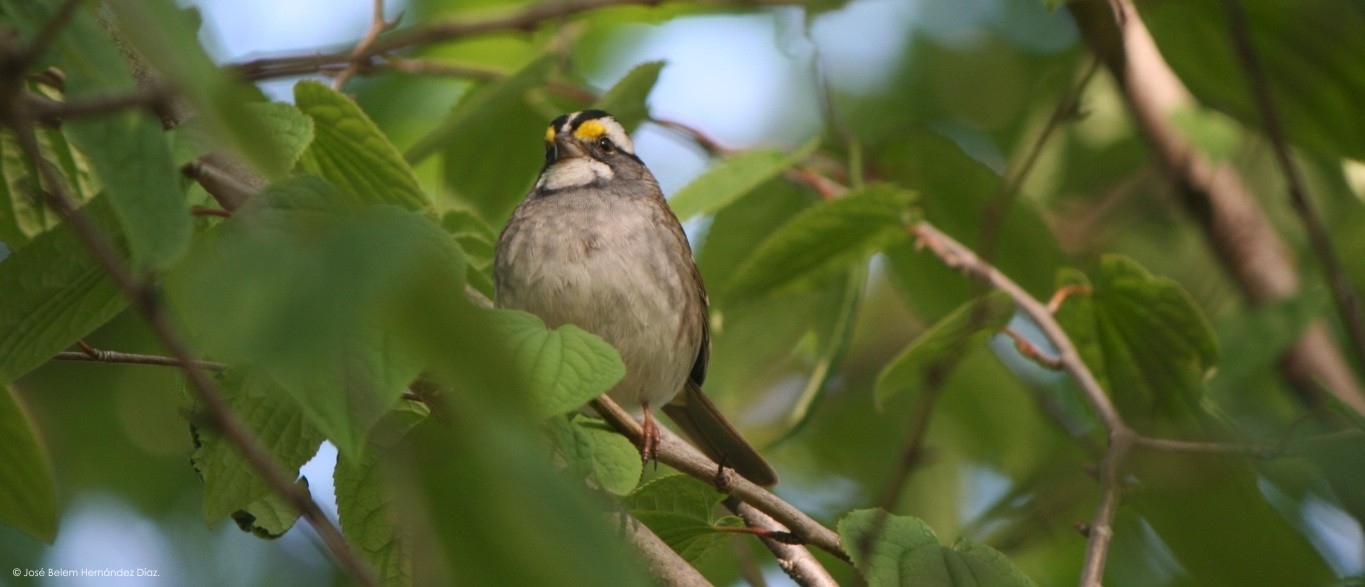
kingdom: Animalia
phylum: Chordata
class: Aves
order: Passeriformes
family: Passerellidae
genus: Zonotrichia
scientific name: Zonotrichia albicollis
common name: White-throated sparrow
